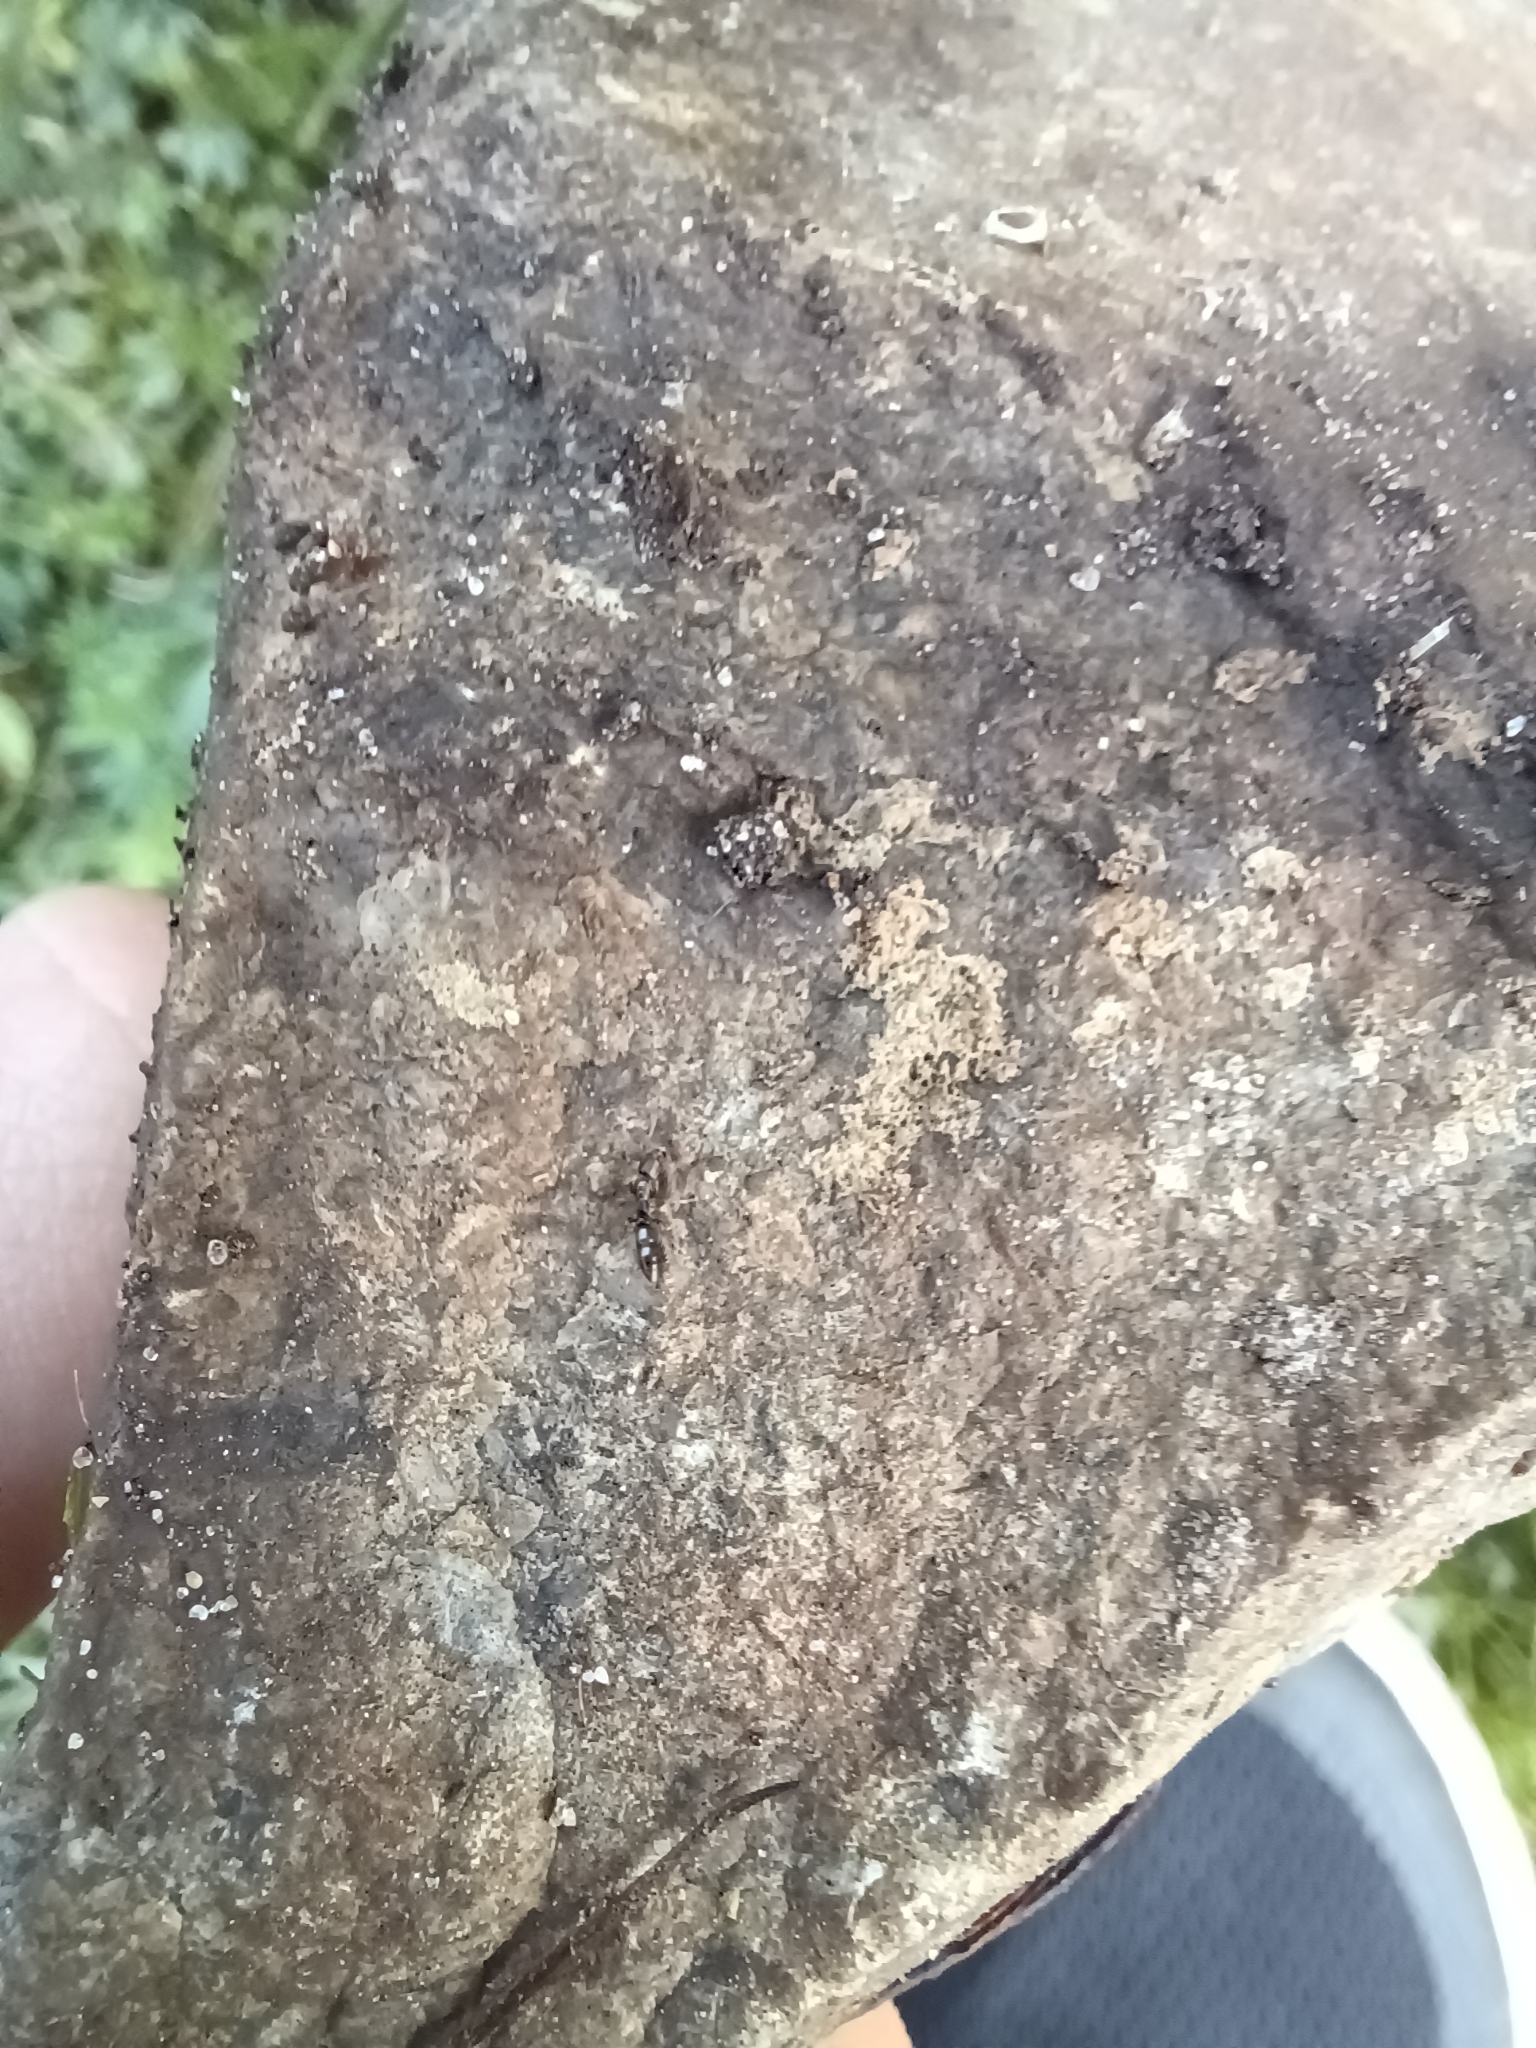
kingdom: Animalia
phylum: Arthropoda
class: Insecta
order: Hymenoptera
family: Formicidae
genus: Ponera
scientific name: Ponera pennsylvanica
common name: Pennsylvania ponera
